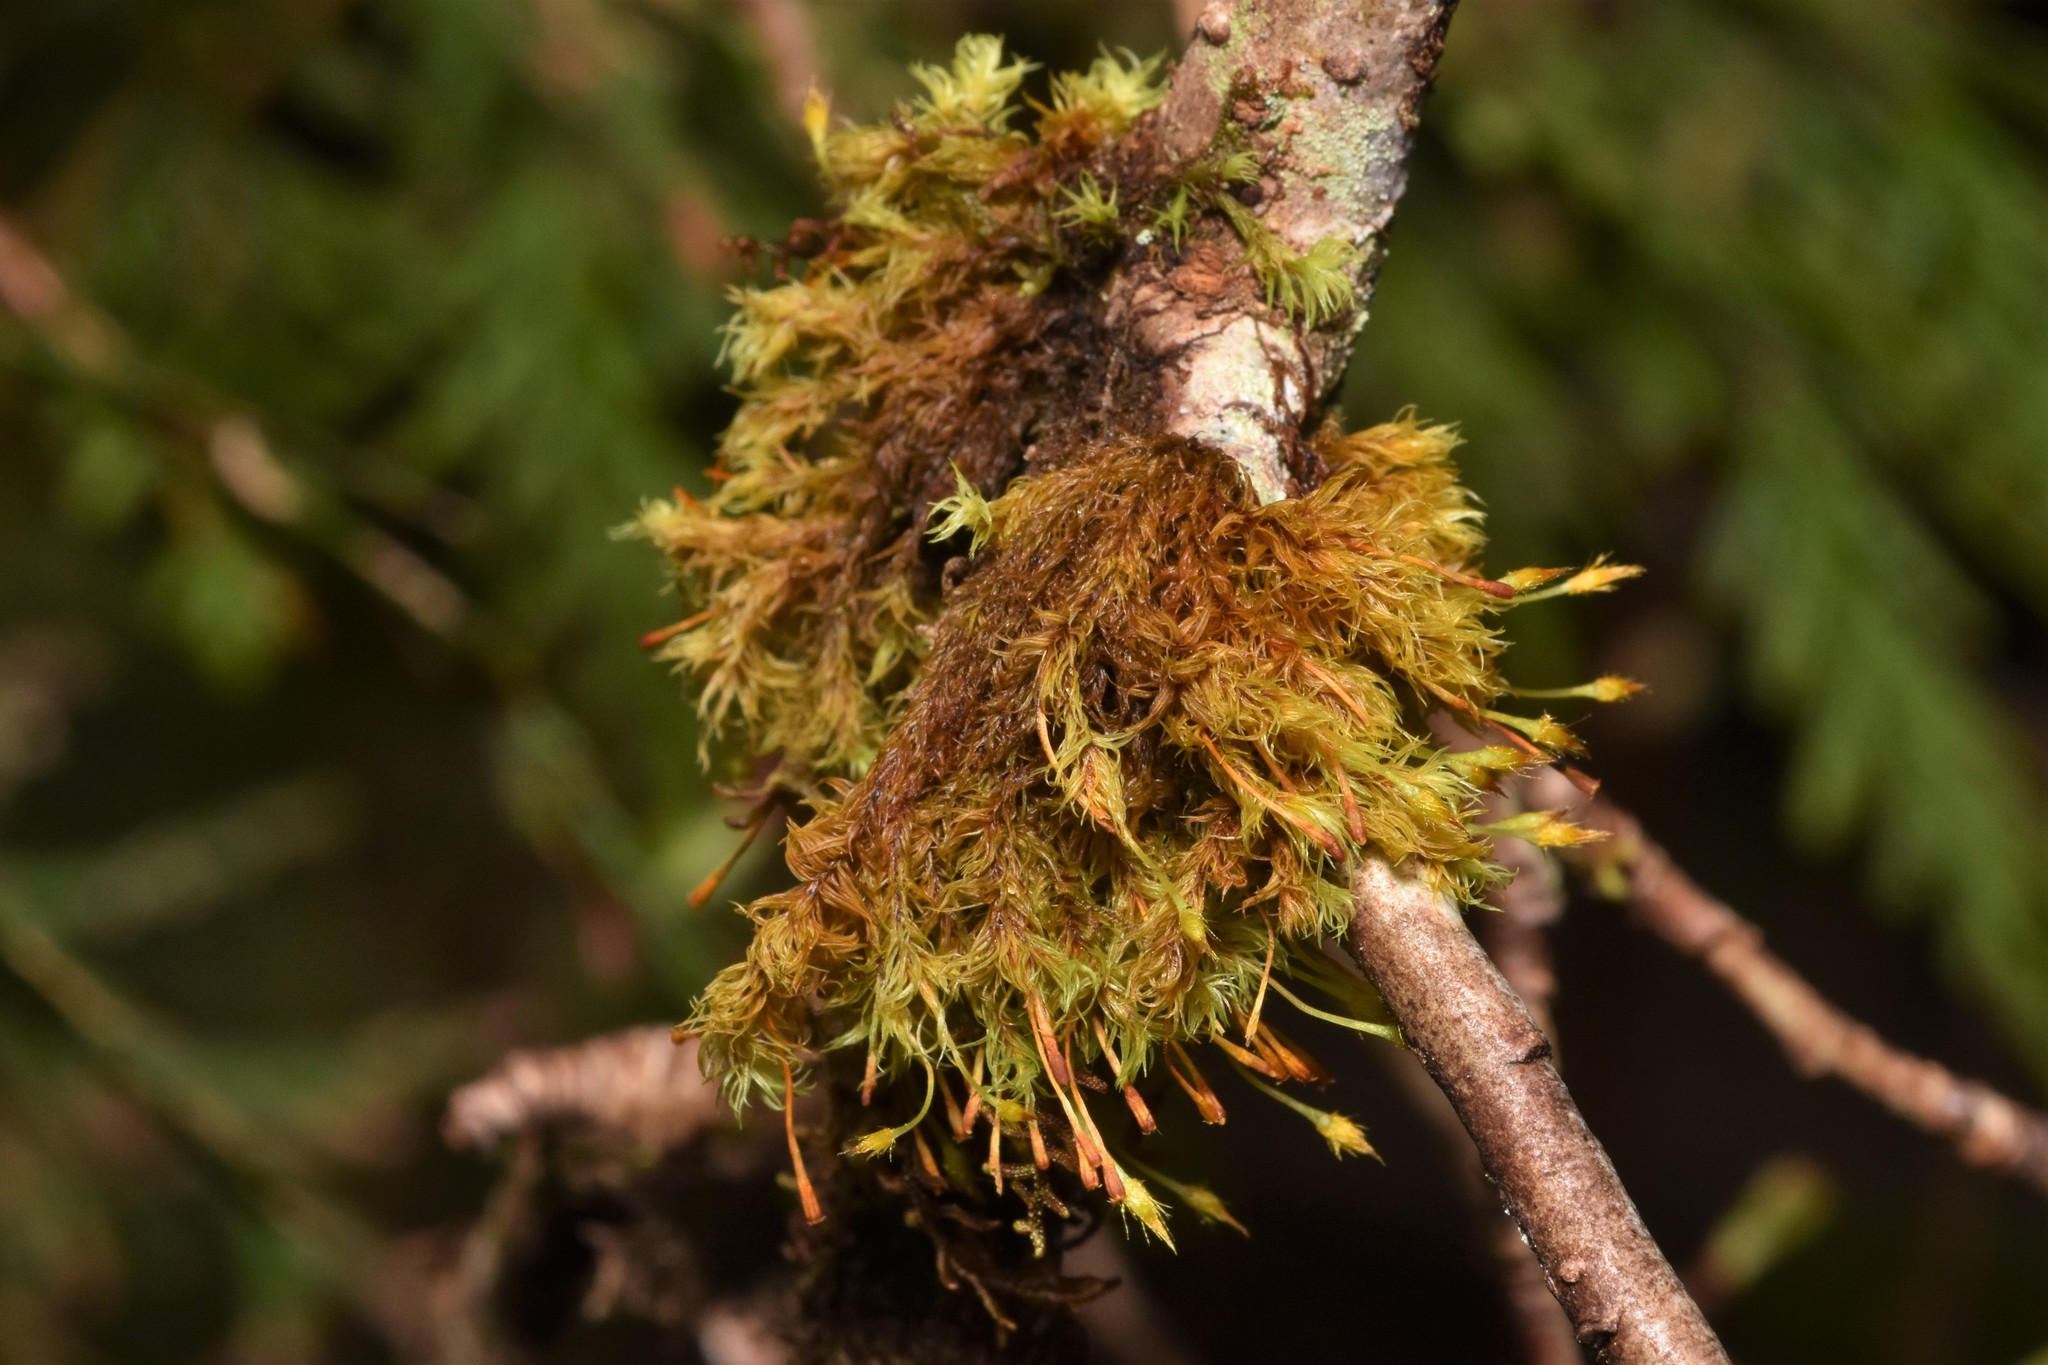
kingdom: Plantae
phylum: Bryophyta
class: Bryopsida
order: Orthotrichales
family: Orthotrichaceae
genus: Ulota
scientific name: Ulota obtusiuscula
